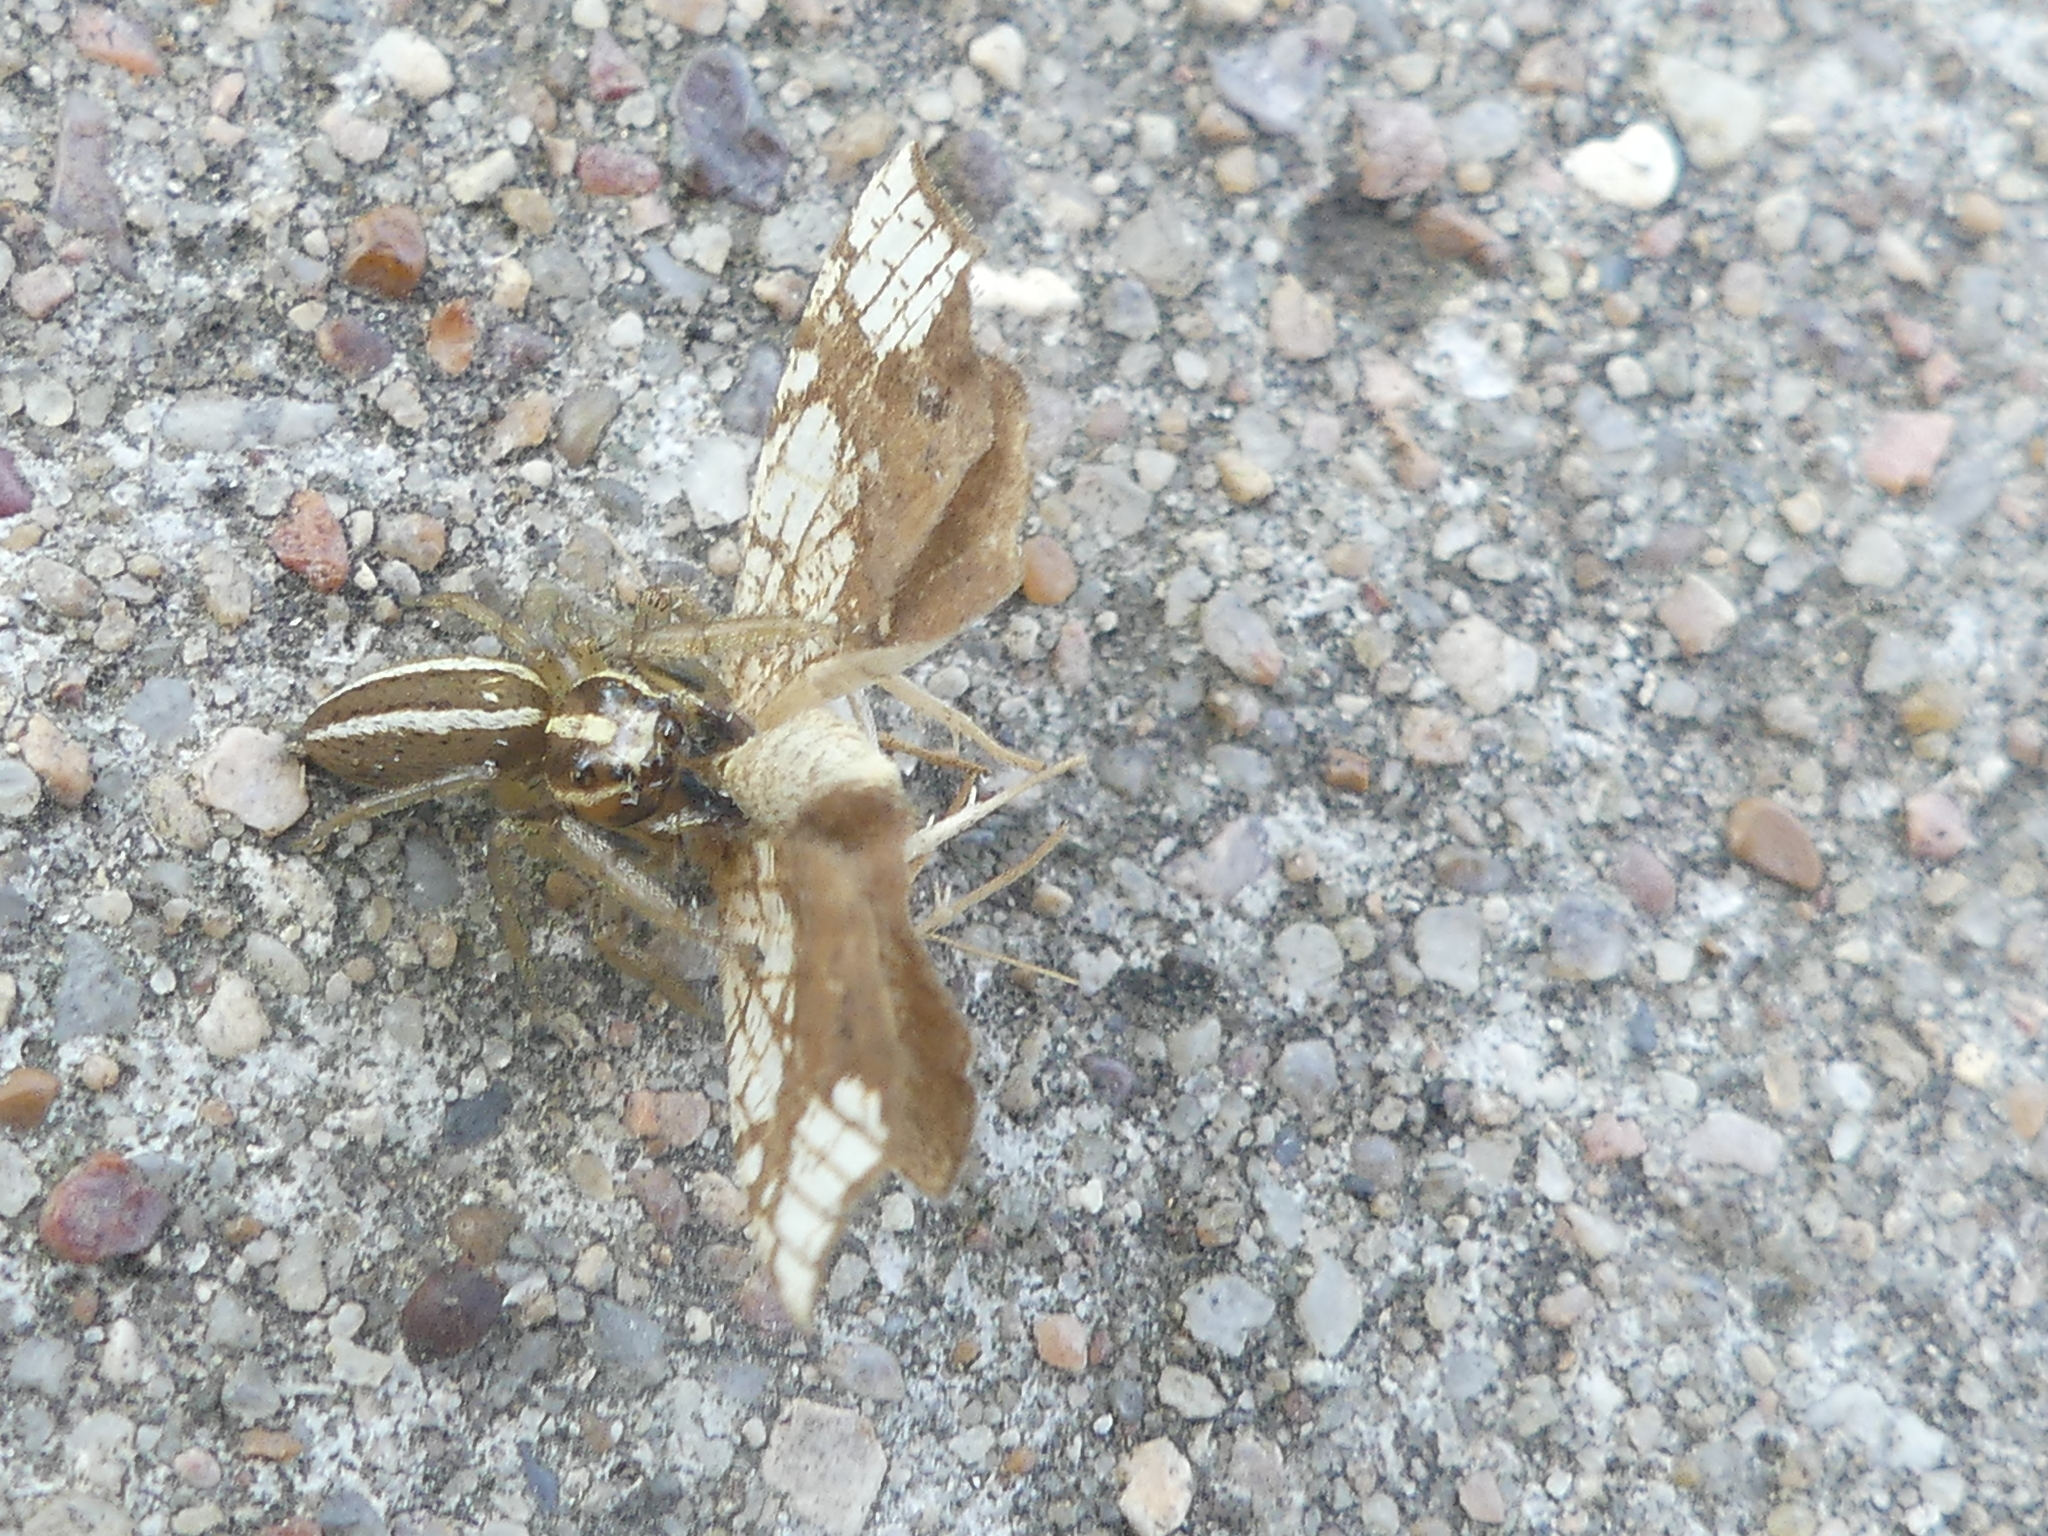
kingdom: Animalia
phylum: Arthropoda
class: Arachnida
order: Araneae
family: Salticidae
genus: Colonus
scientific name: Colonus puerperus
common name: Jumping spiders
